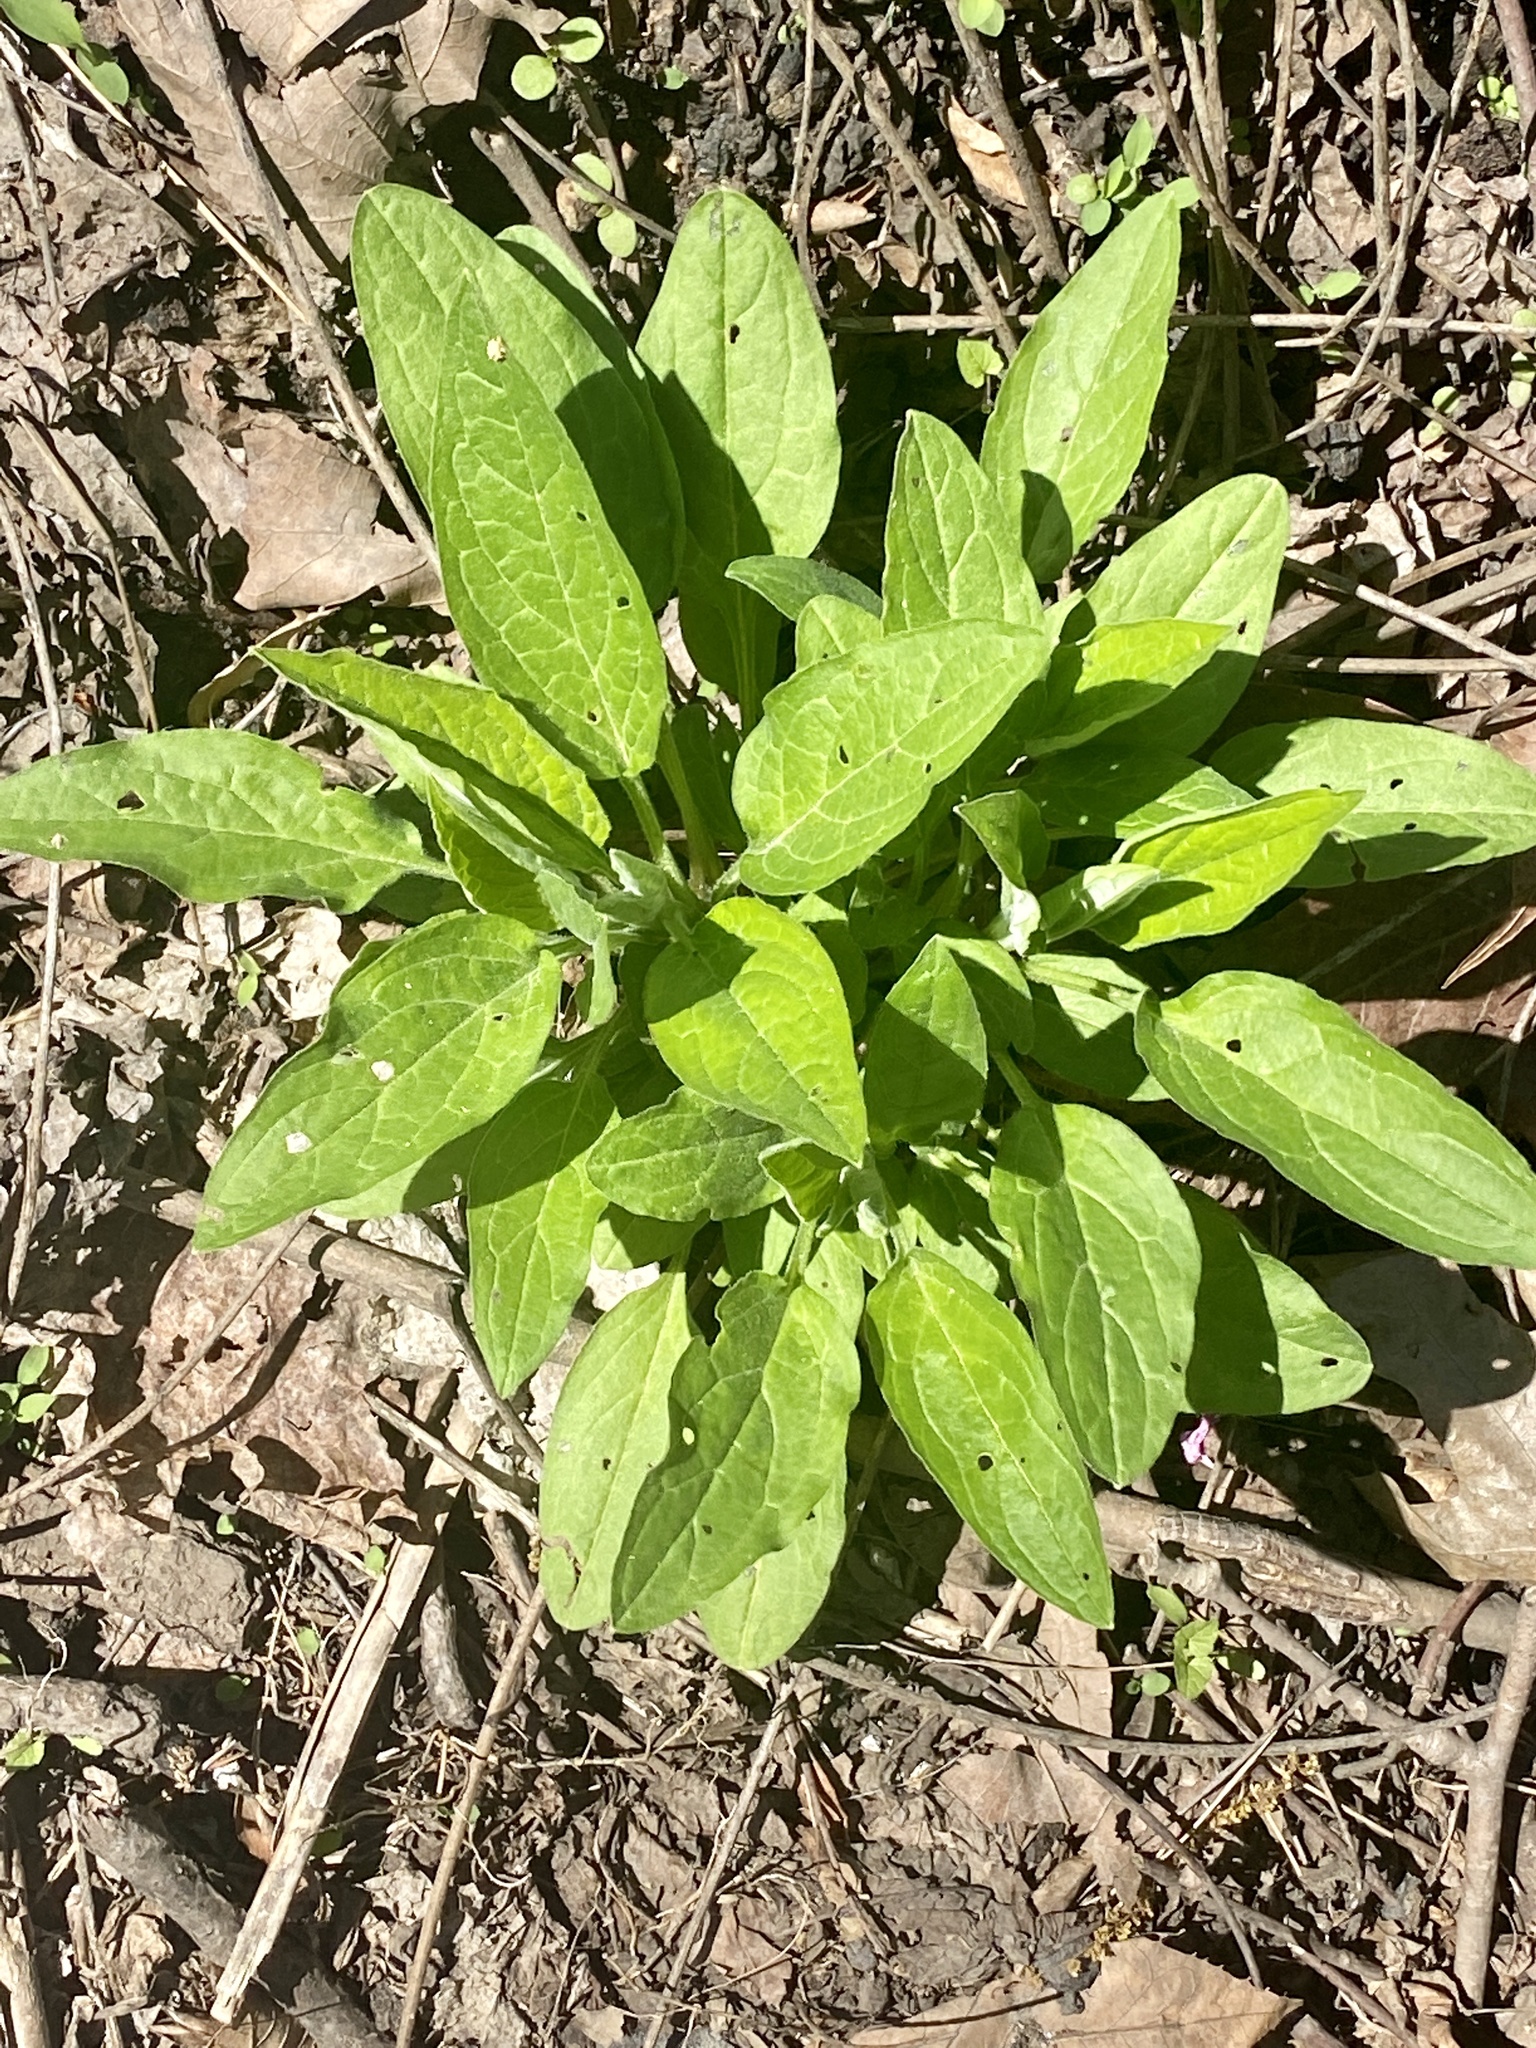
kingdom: Plantae
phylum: Tracheophyta
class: Magnoliopsida
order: Boraginales
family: Boraginaceae
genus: Hackelia
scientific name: Hackelia virginiana
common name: Beggar's-lice
